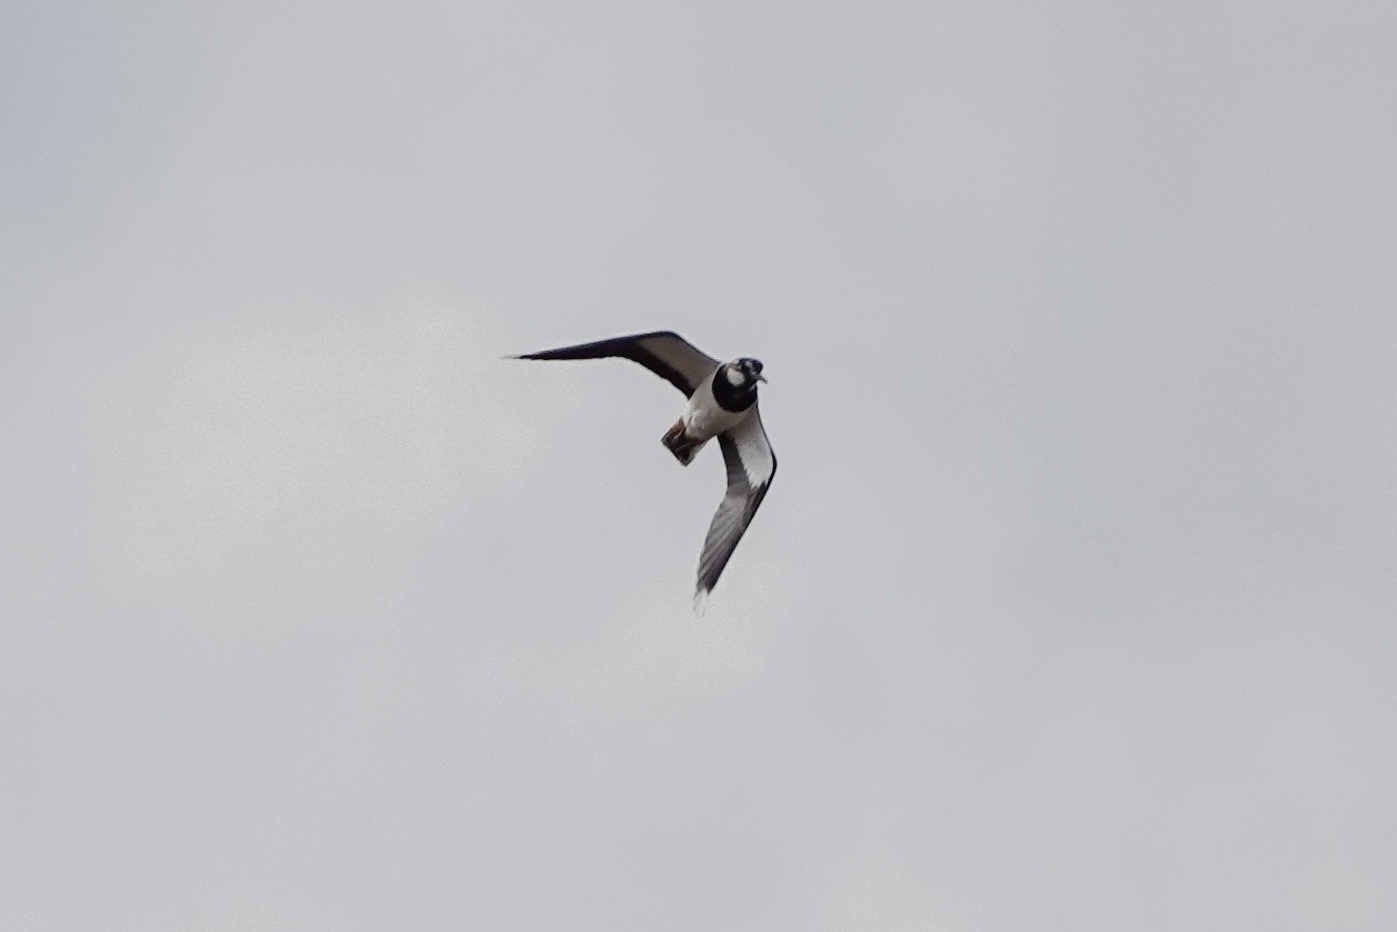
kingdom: Animalia
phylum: Chordata
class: Aves
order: Charadriiformes
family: Charadriidae
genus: Vanellus
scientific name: Vanellus vanellus
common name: Northern lapwing
